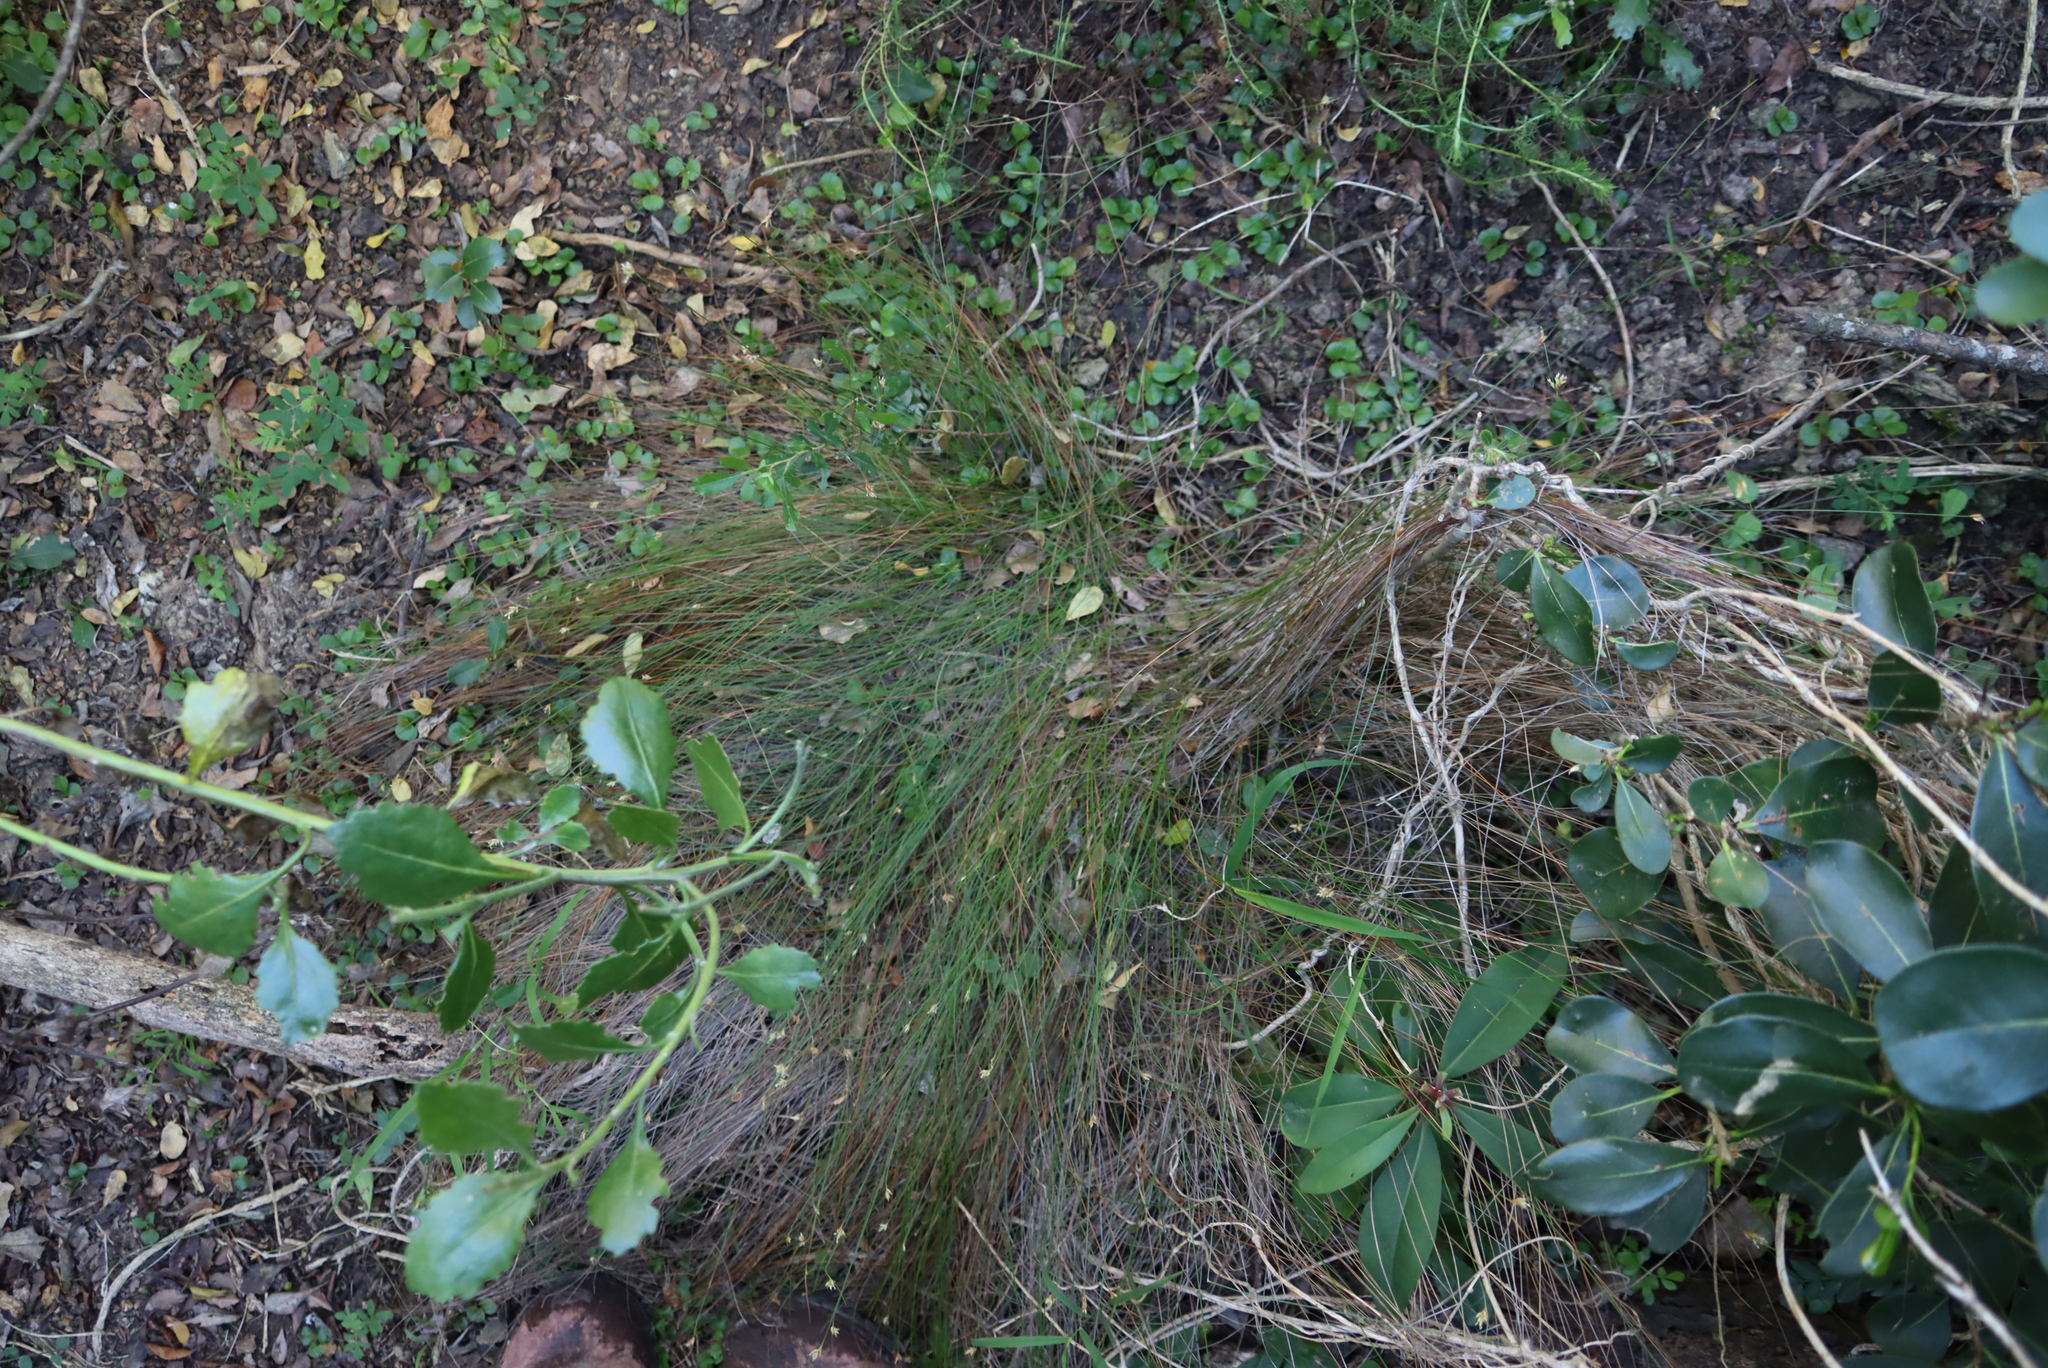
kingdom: Plantae
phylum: Tracheophyta
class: Liliopsida
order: Poales
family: Cyperaceae
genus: Ficinia
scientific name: Ficinia fascicularis
